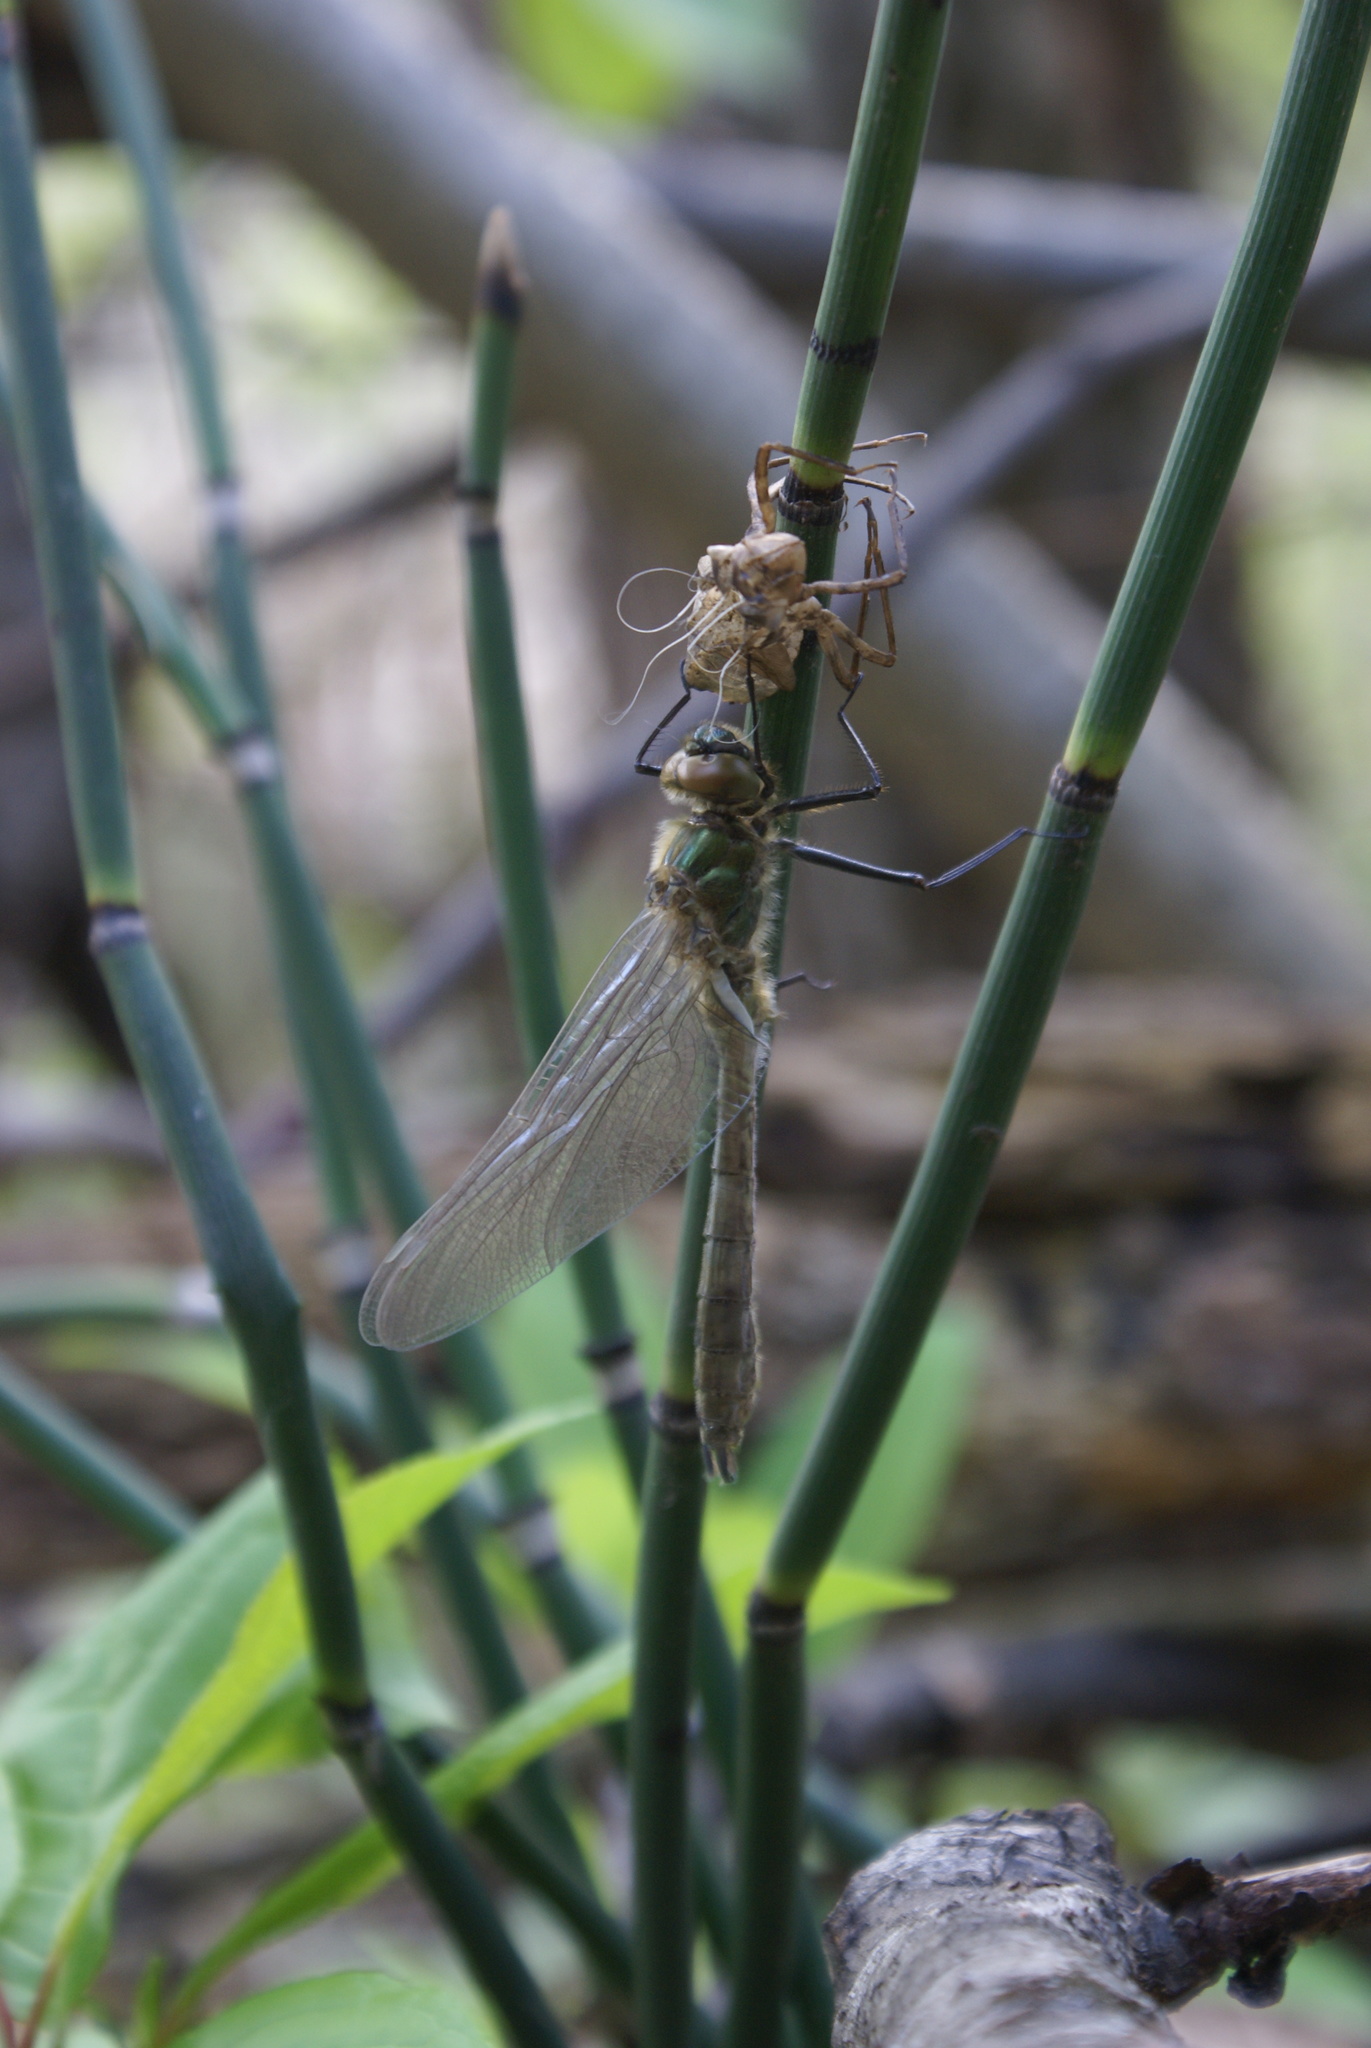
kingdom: Animalia
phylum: Arthropoda
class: Insecta
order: Odonata
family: Corduliidae
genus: Cordulia
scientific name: Cordulia aenea
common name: Downy emerald
